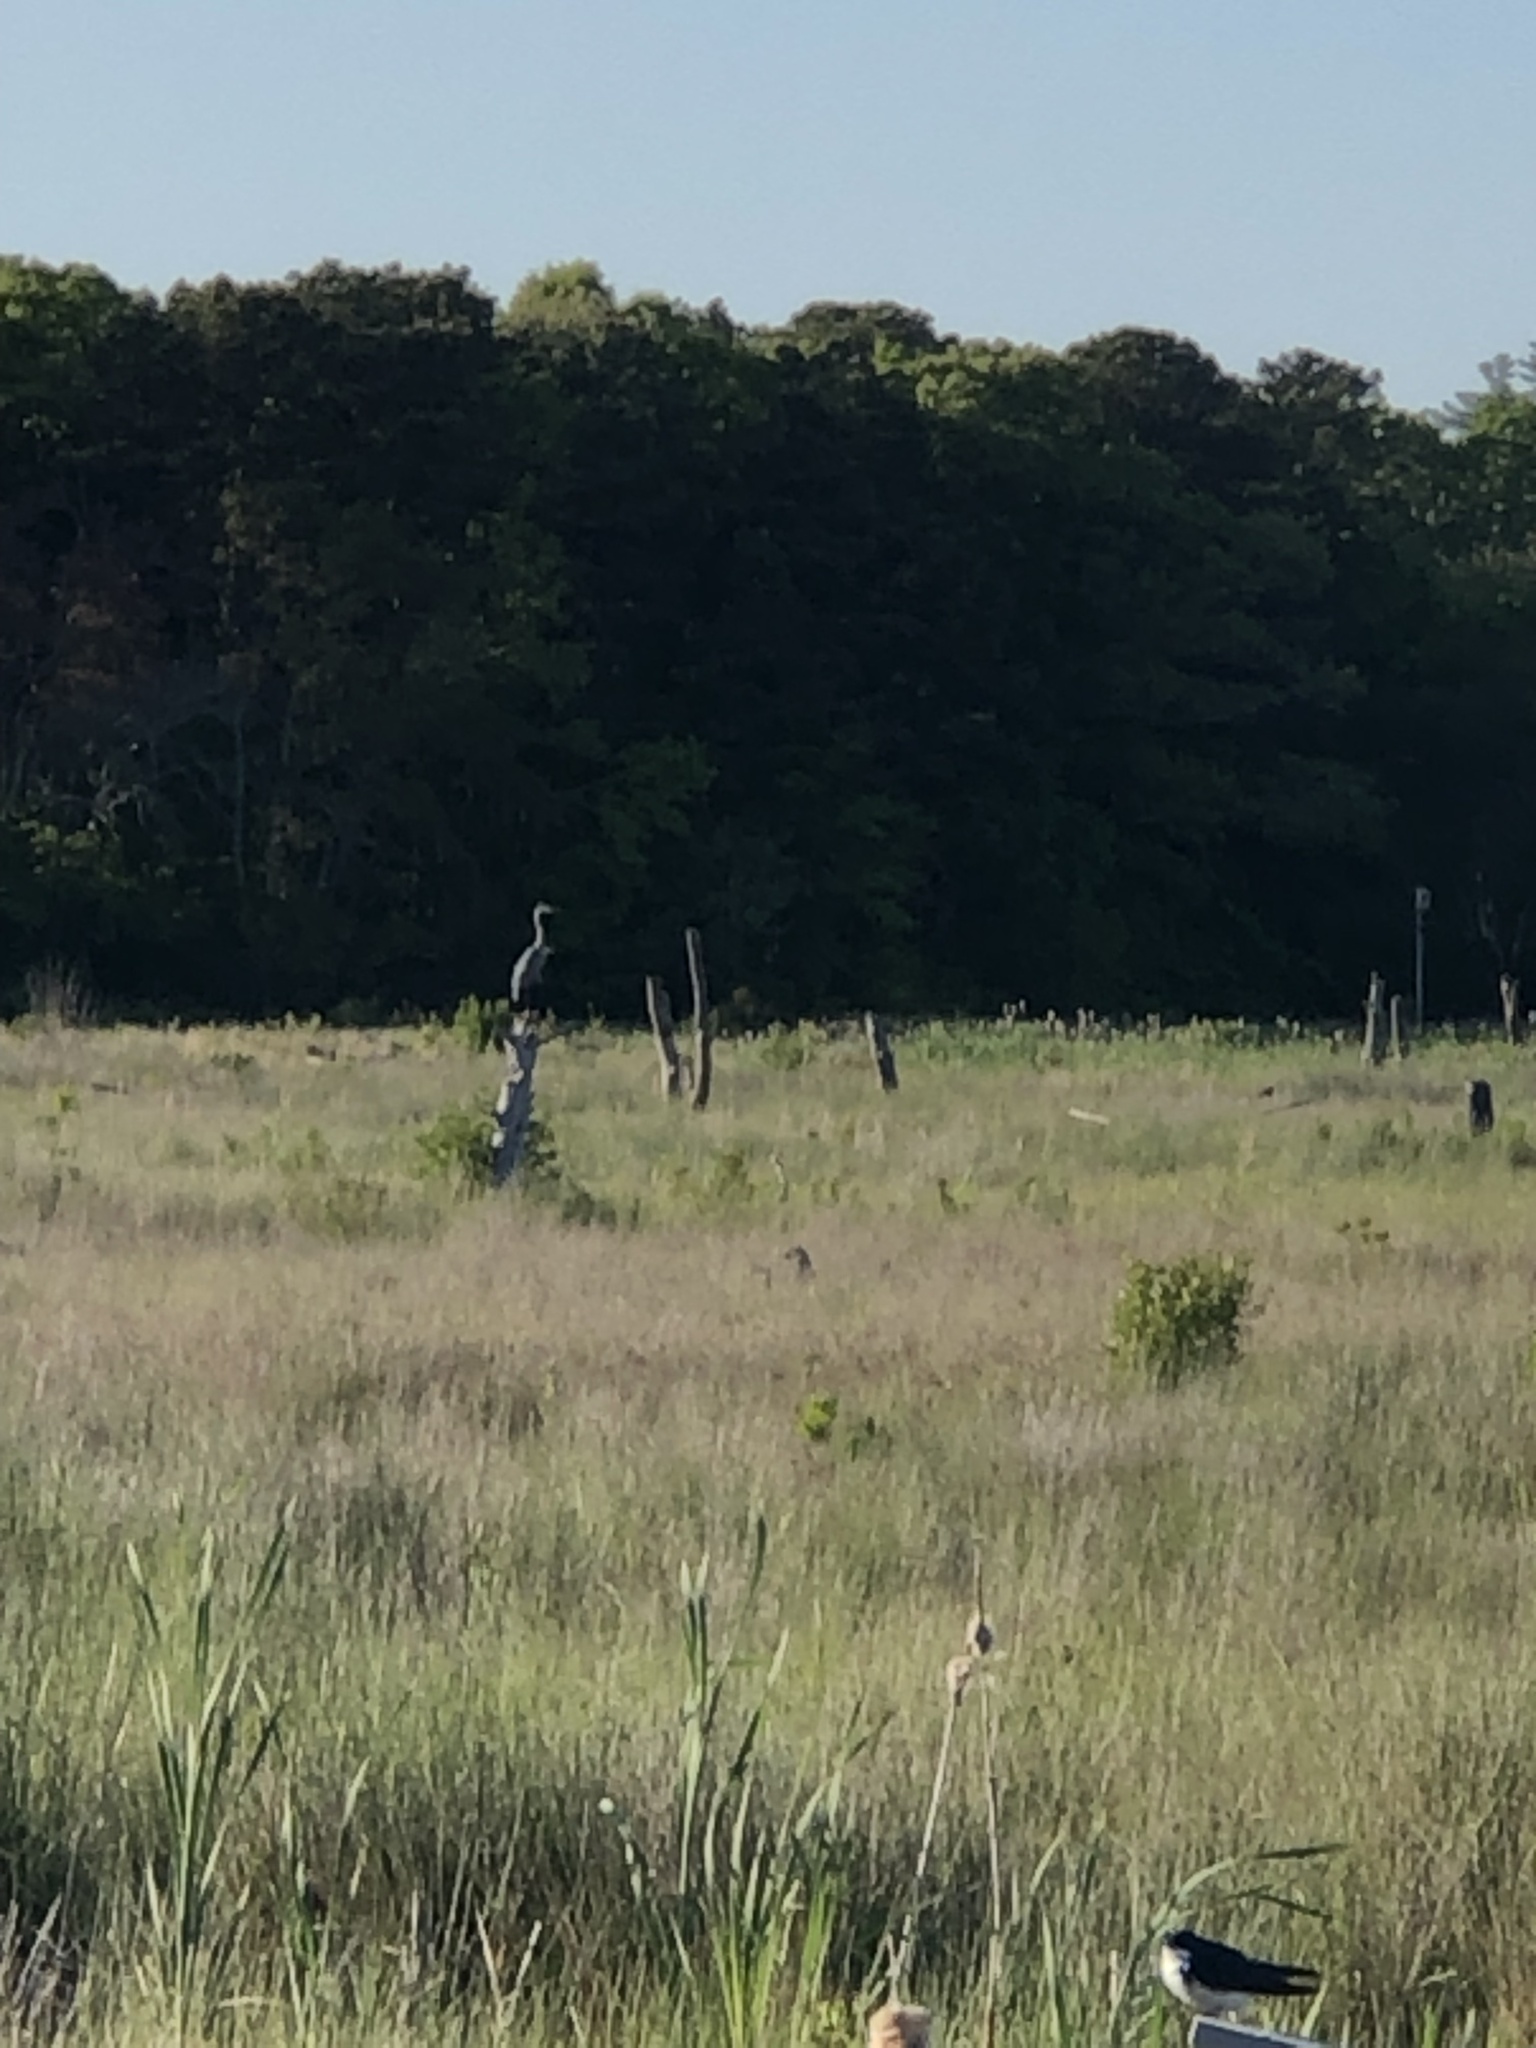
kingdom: Animalia
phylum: Chordata
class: Aves
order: Pelecaniformes
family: Ardeidae
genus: Ardea
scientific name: Ardea herodias
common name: Great blue heron
